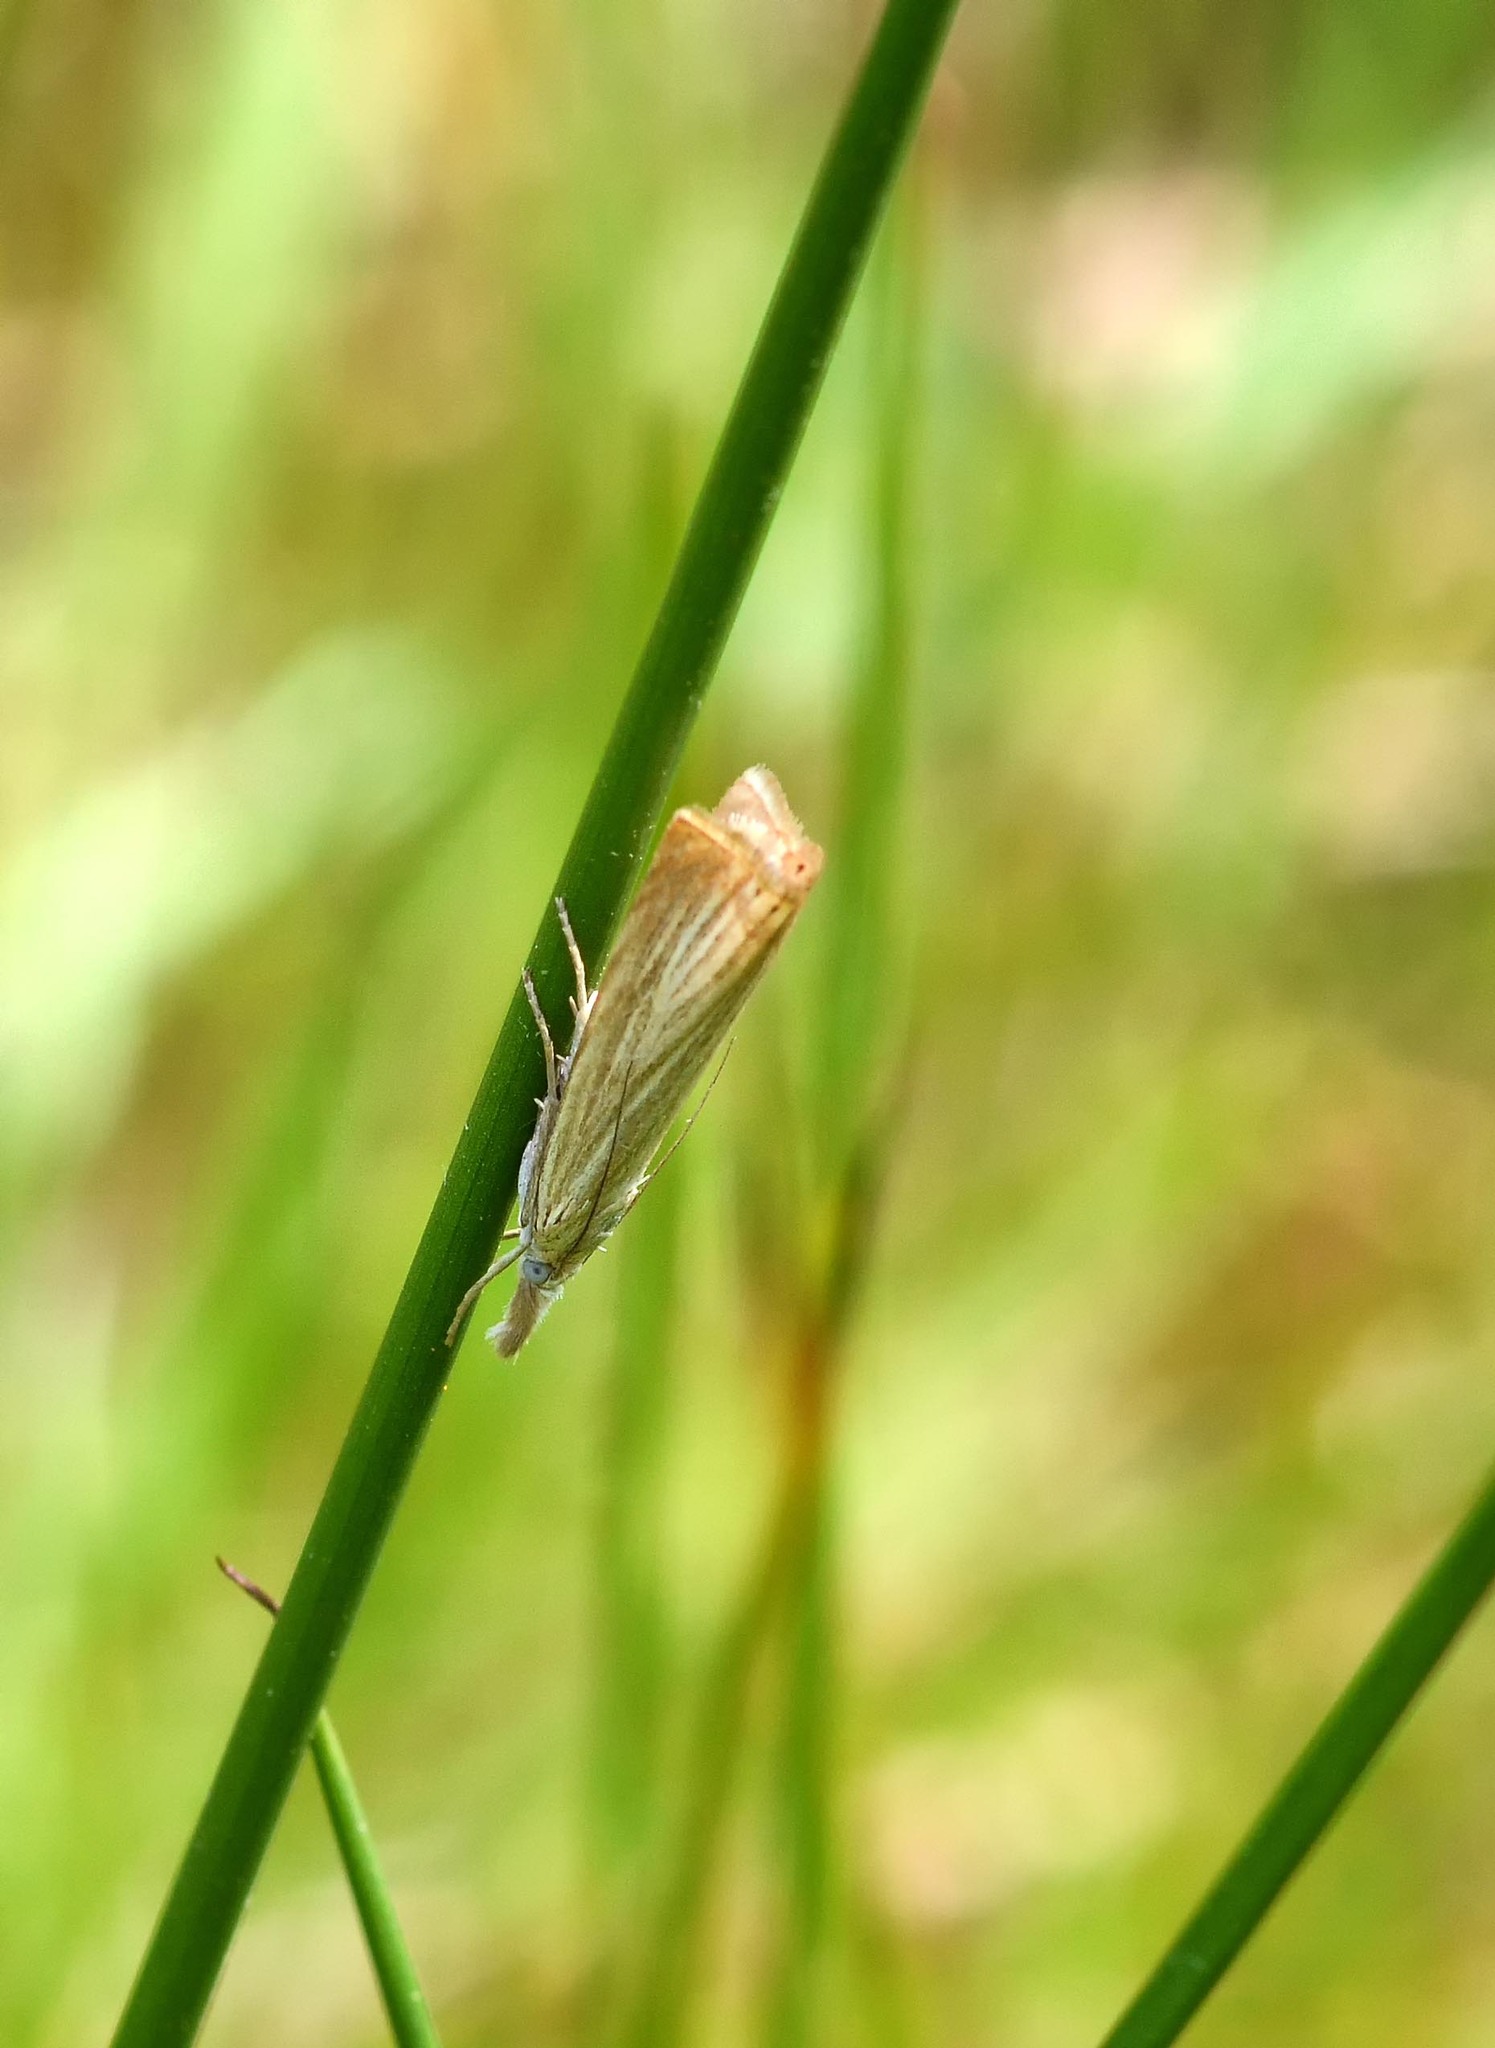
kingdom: Animalia
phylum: Arthropoda
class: Insecta
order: Lepidoptera
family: Crambidae
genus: Chrysoteuchia
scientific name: Chrysoteuchia culmella
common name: Garden grass-veneer
